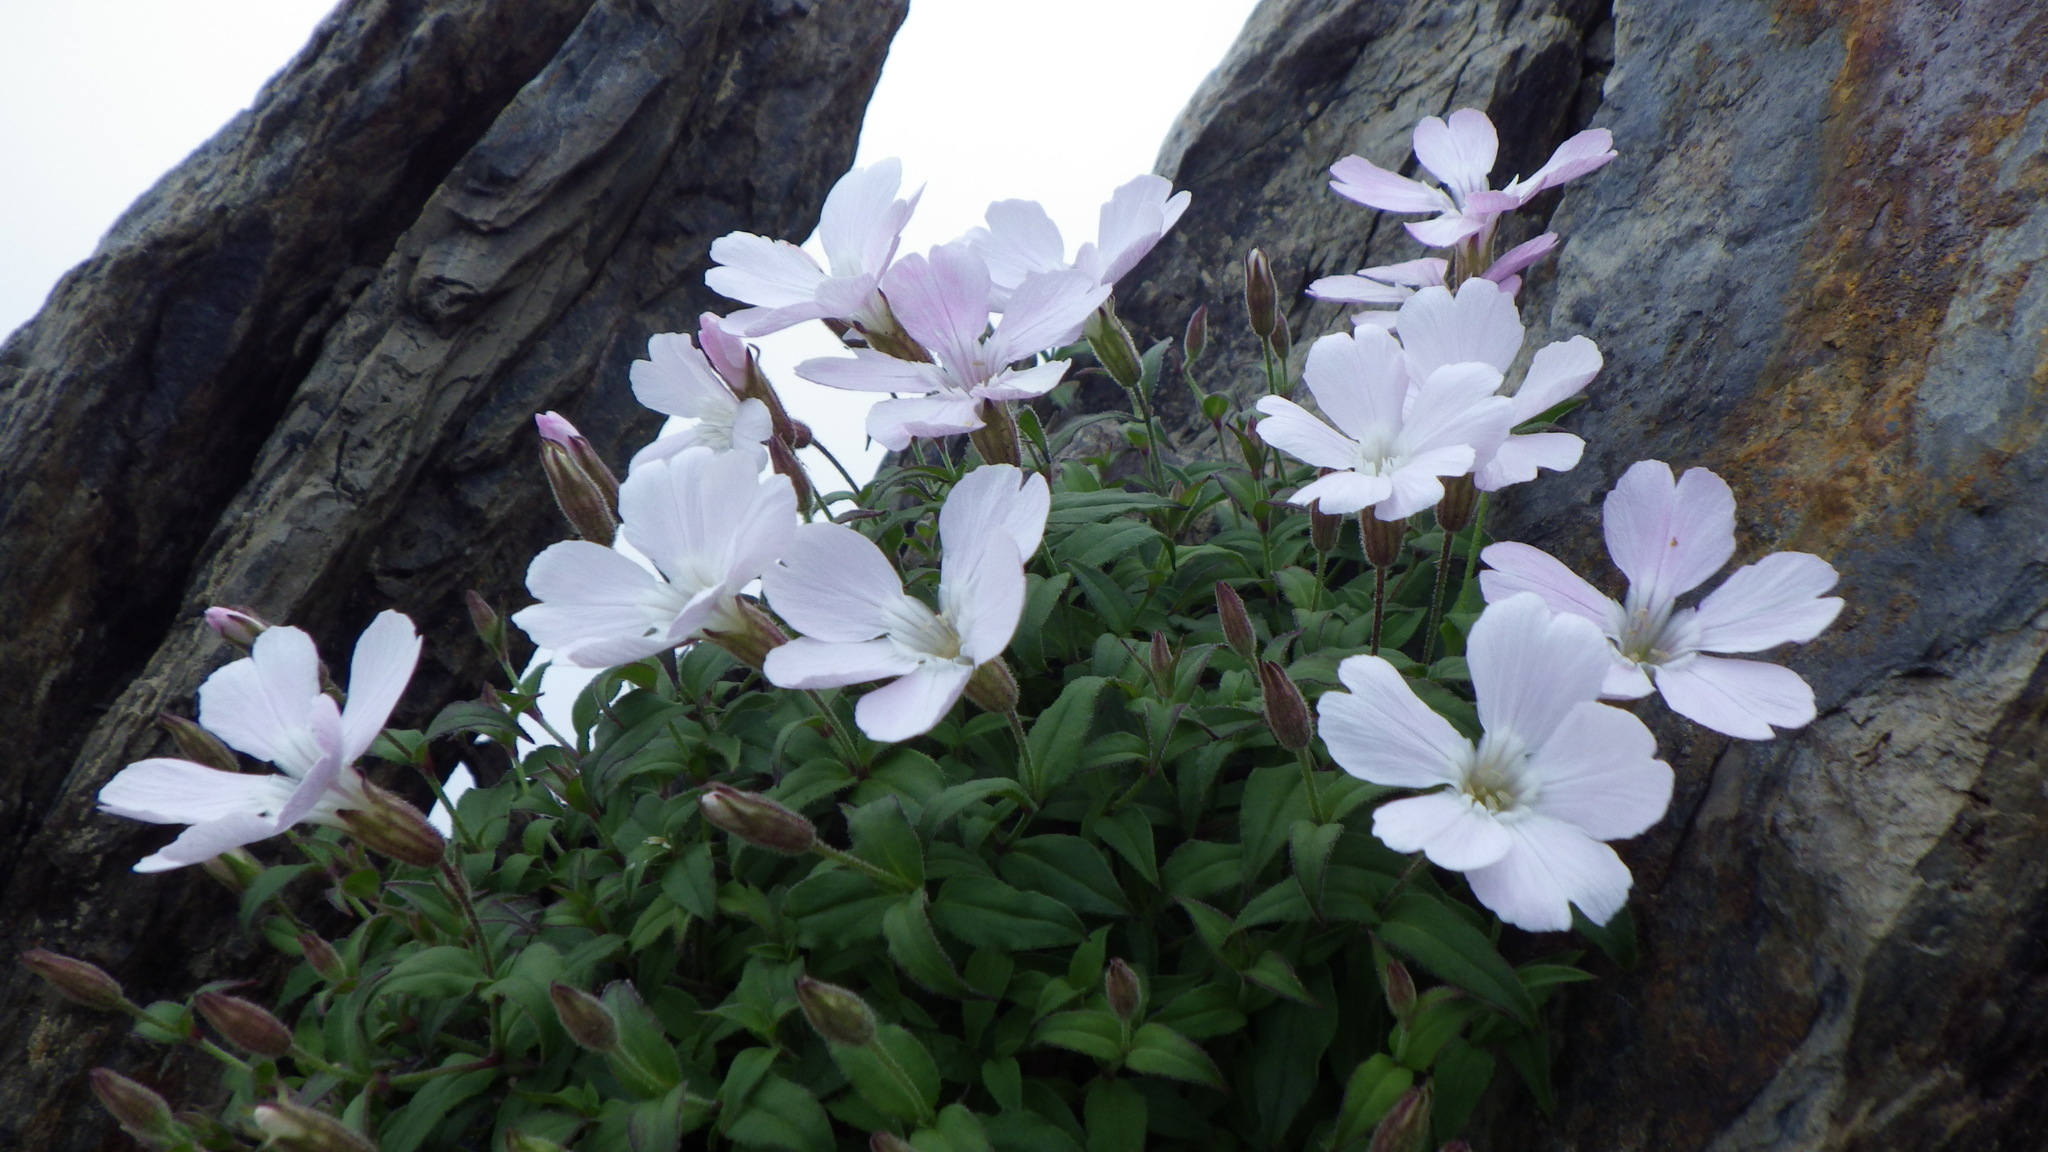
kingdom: Plantae
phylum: Tracheophyta
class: Magnoliopsida
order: Caryophyllales
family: Caryophyllaceae
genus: Silene
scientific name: Silene akaisialpina
